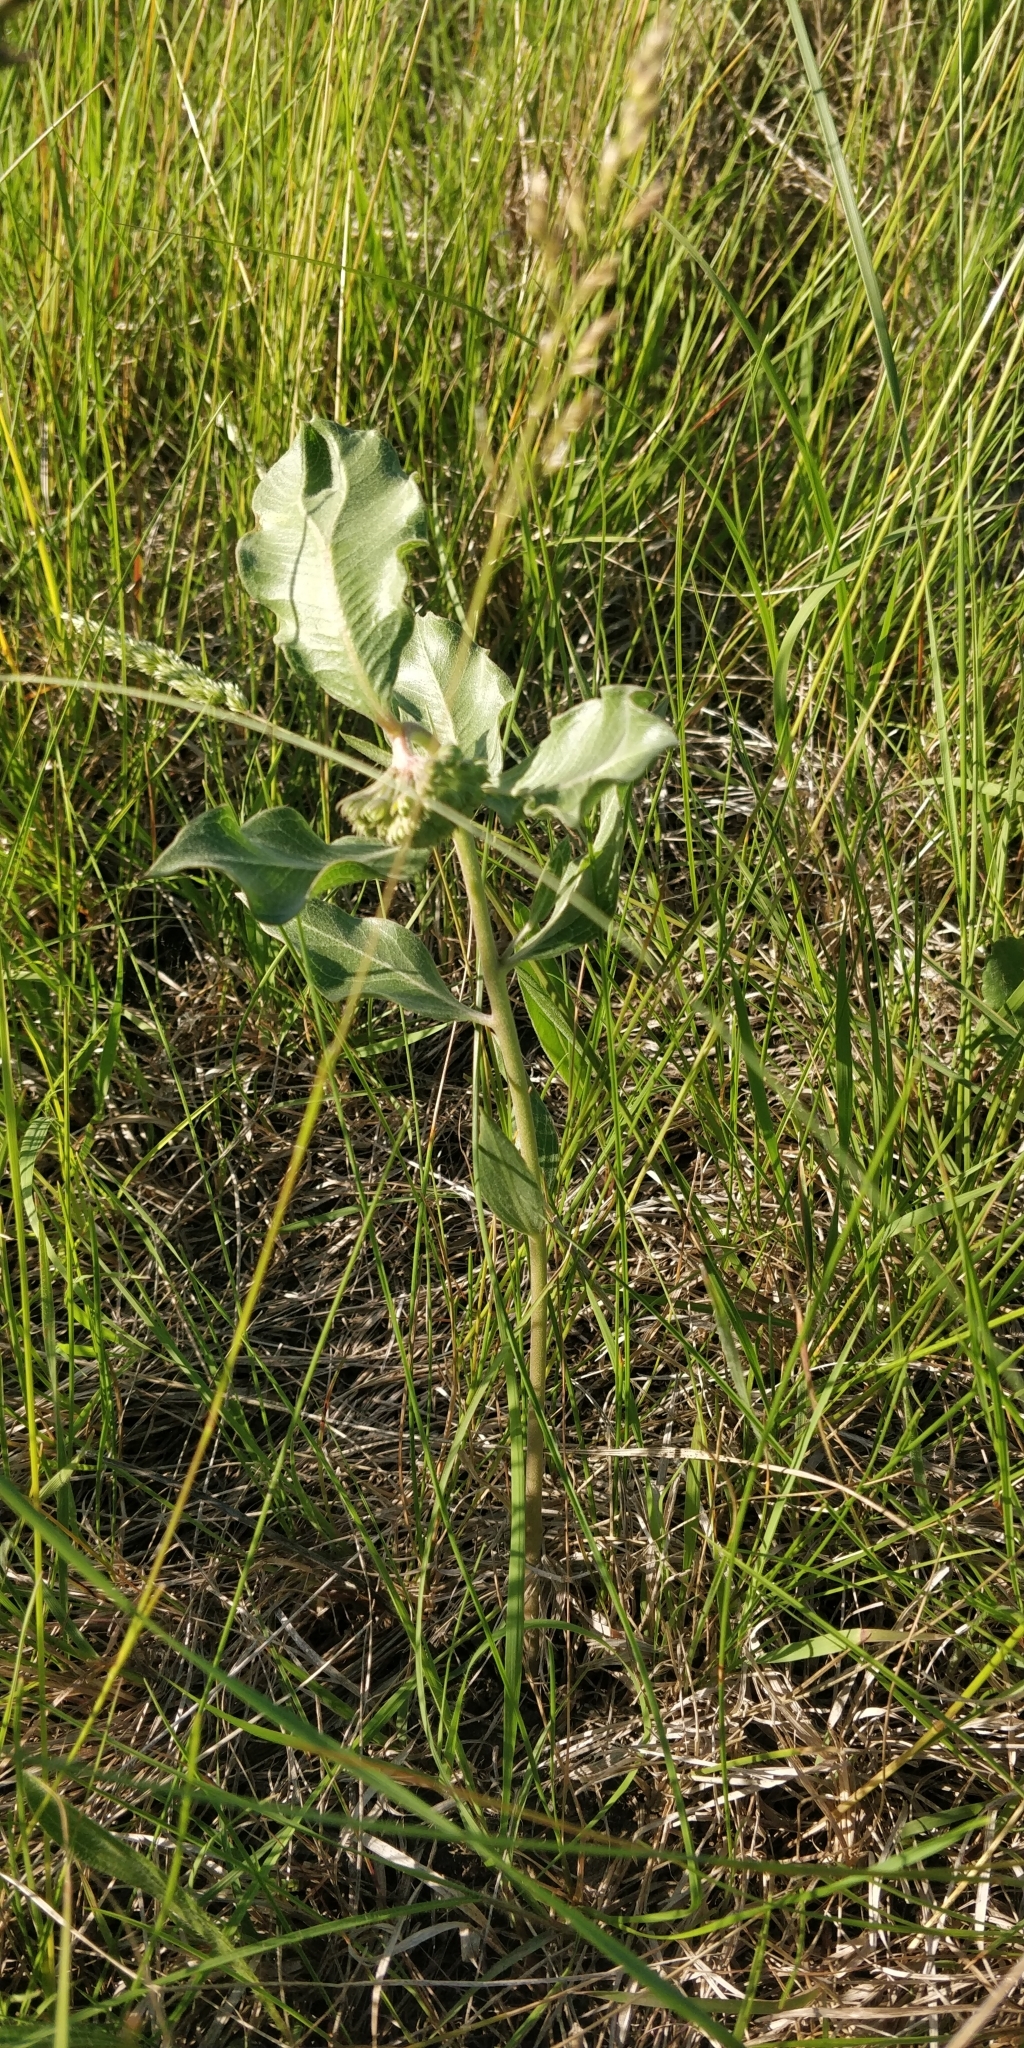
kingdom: Plantae
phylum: Tracheophyta
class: Magnoliopsida
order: Gentianales
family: Apocynaceae
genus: Asclepias
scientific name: Asclepias viridiflora
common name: Green comet milkweed
